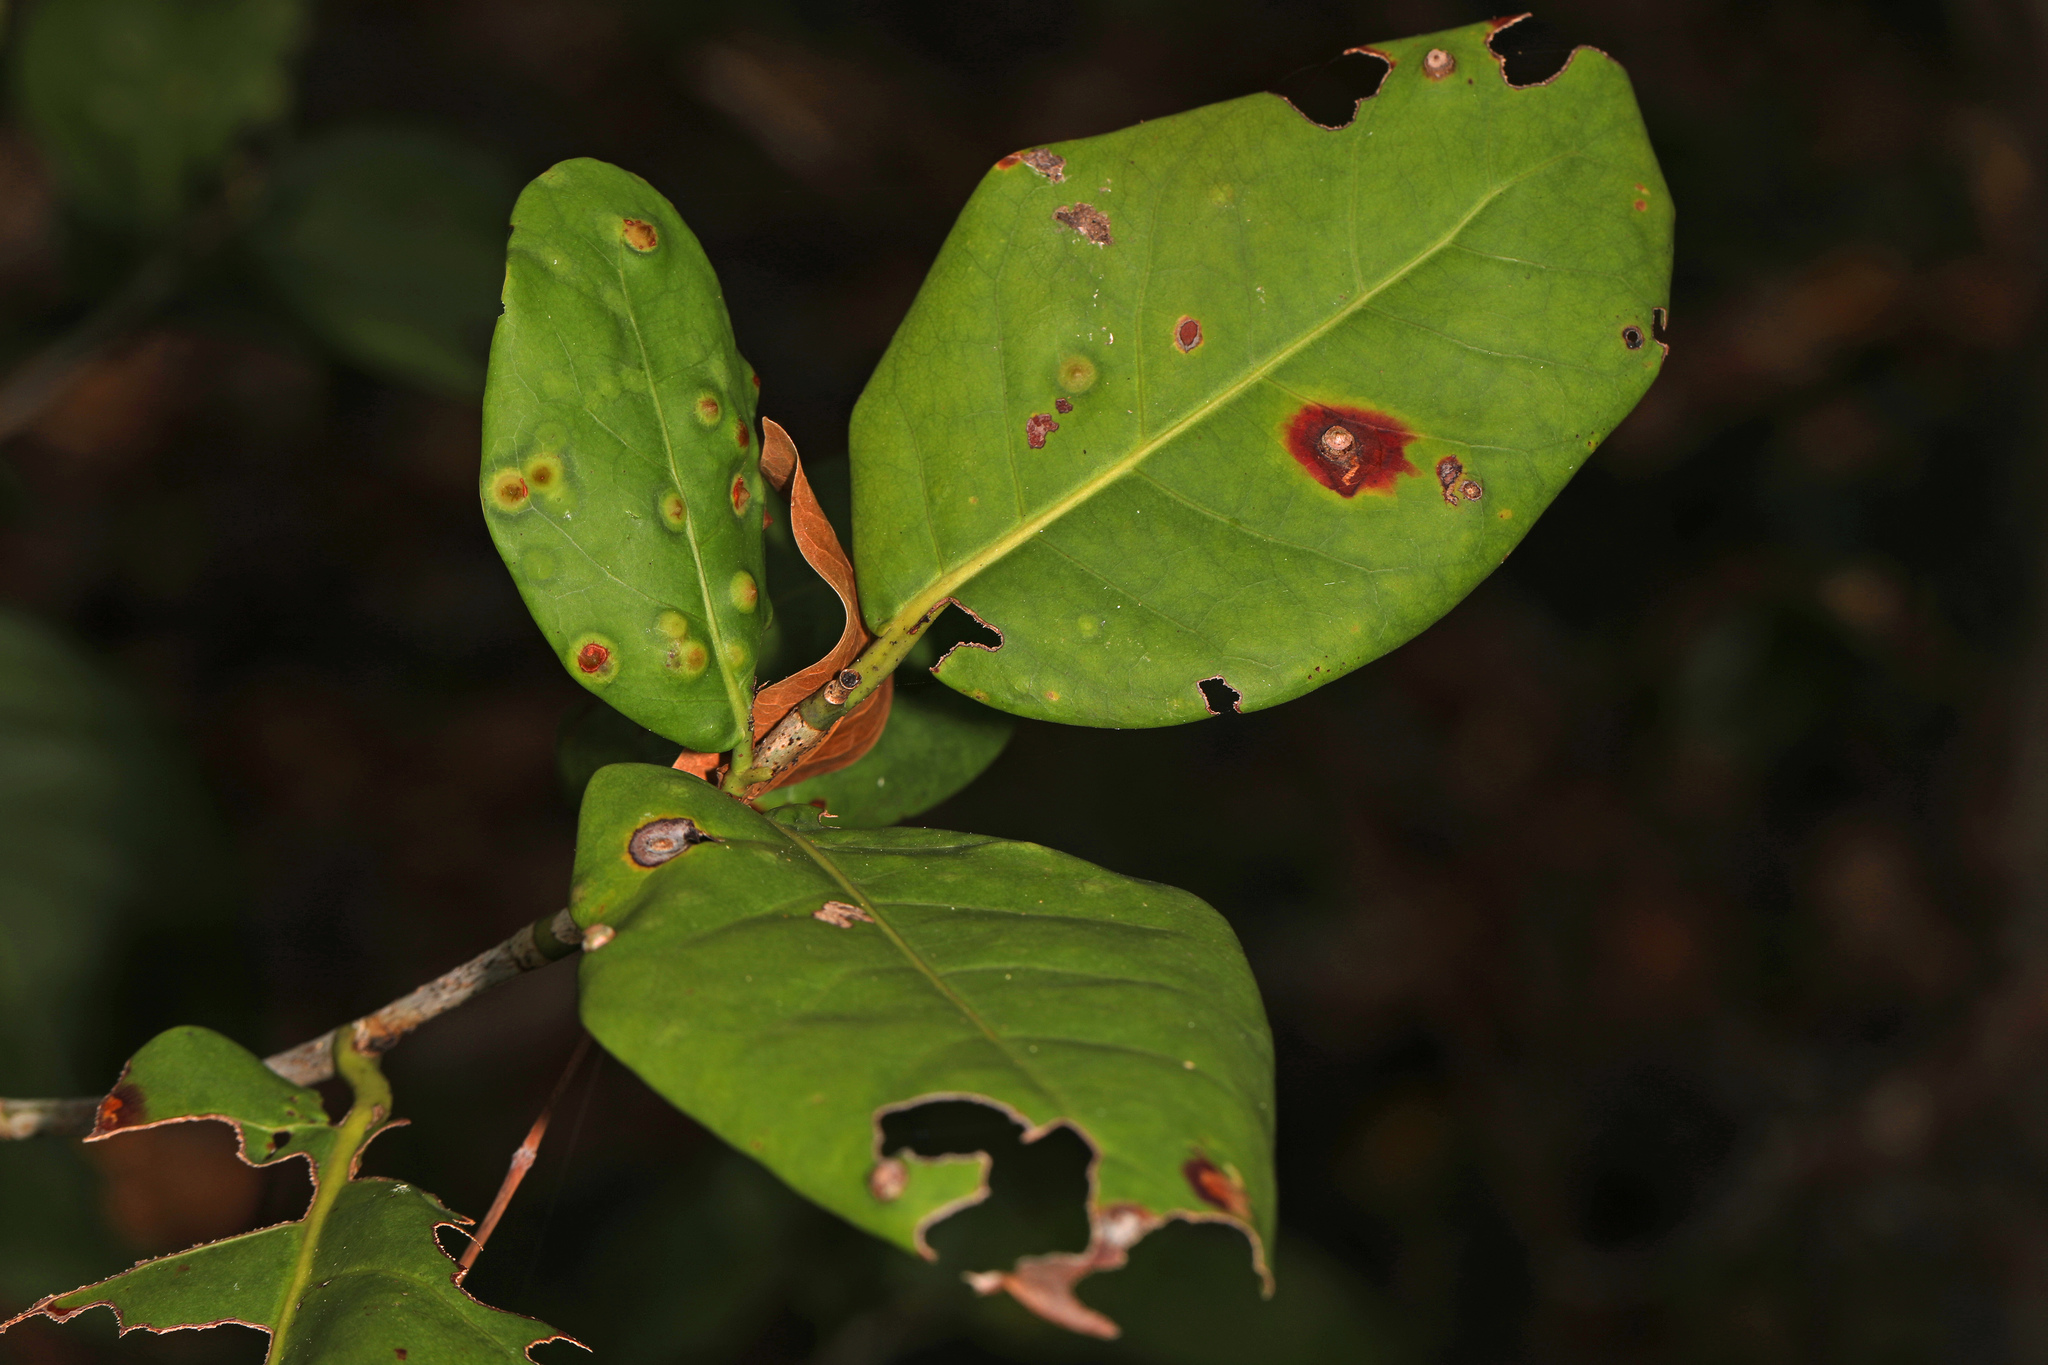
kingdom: Plantae
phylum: Tracheophyta
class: Magnoliopsida
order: Caryophyllales
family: Polygonaceae
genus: Coccoloba
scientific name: Coccoloba diversifolia
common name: Pigeon-plum
